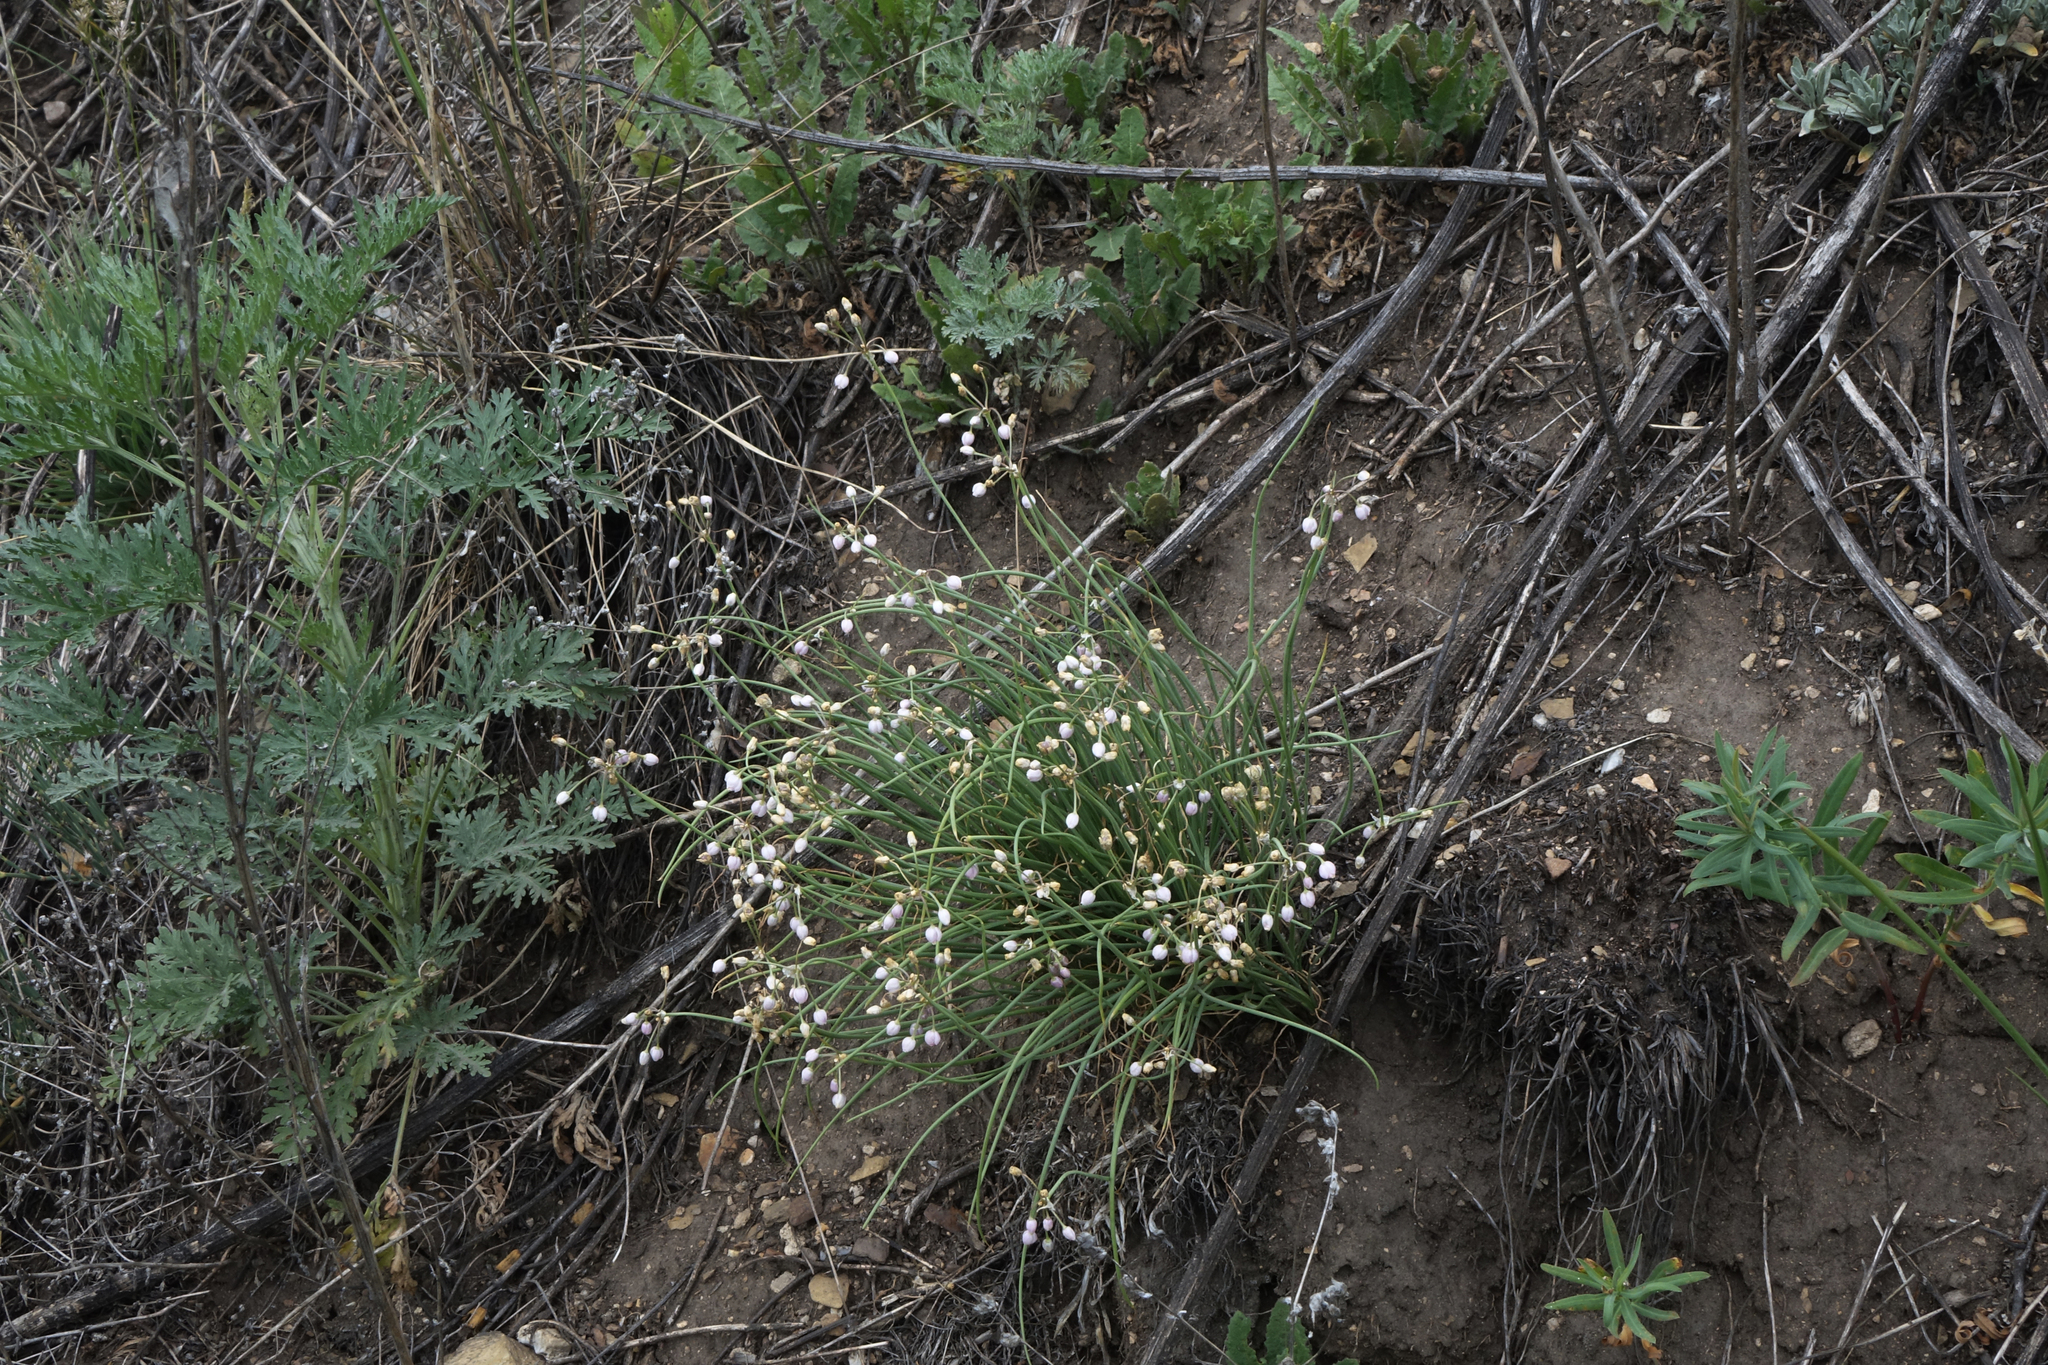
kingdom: Plantae
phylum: Tracheophyta
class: Liliopsida
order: Asparagales
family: Amaryllidaceae
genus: Allium
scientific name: Allium vodopjanovae
